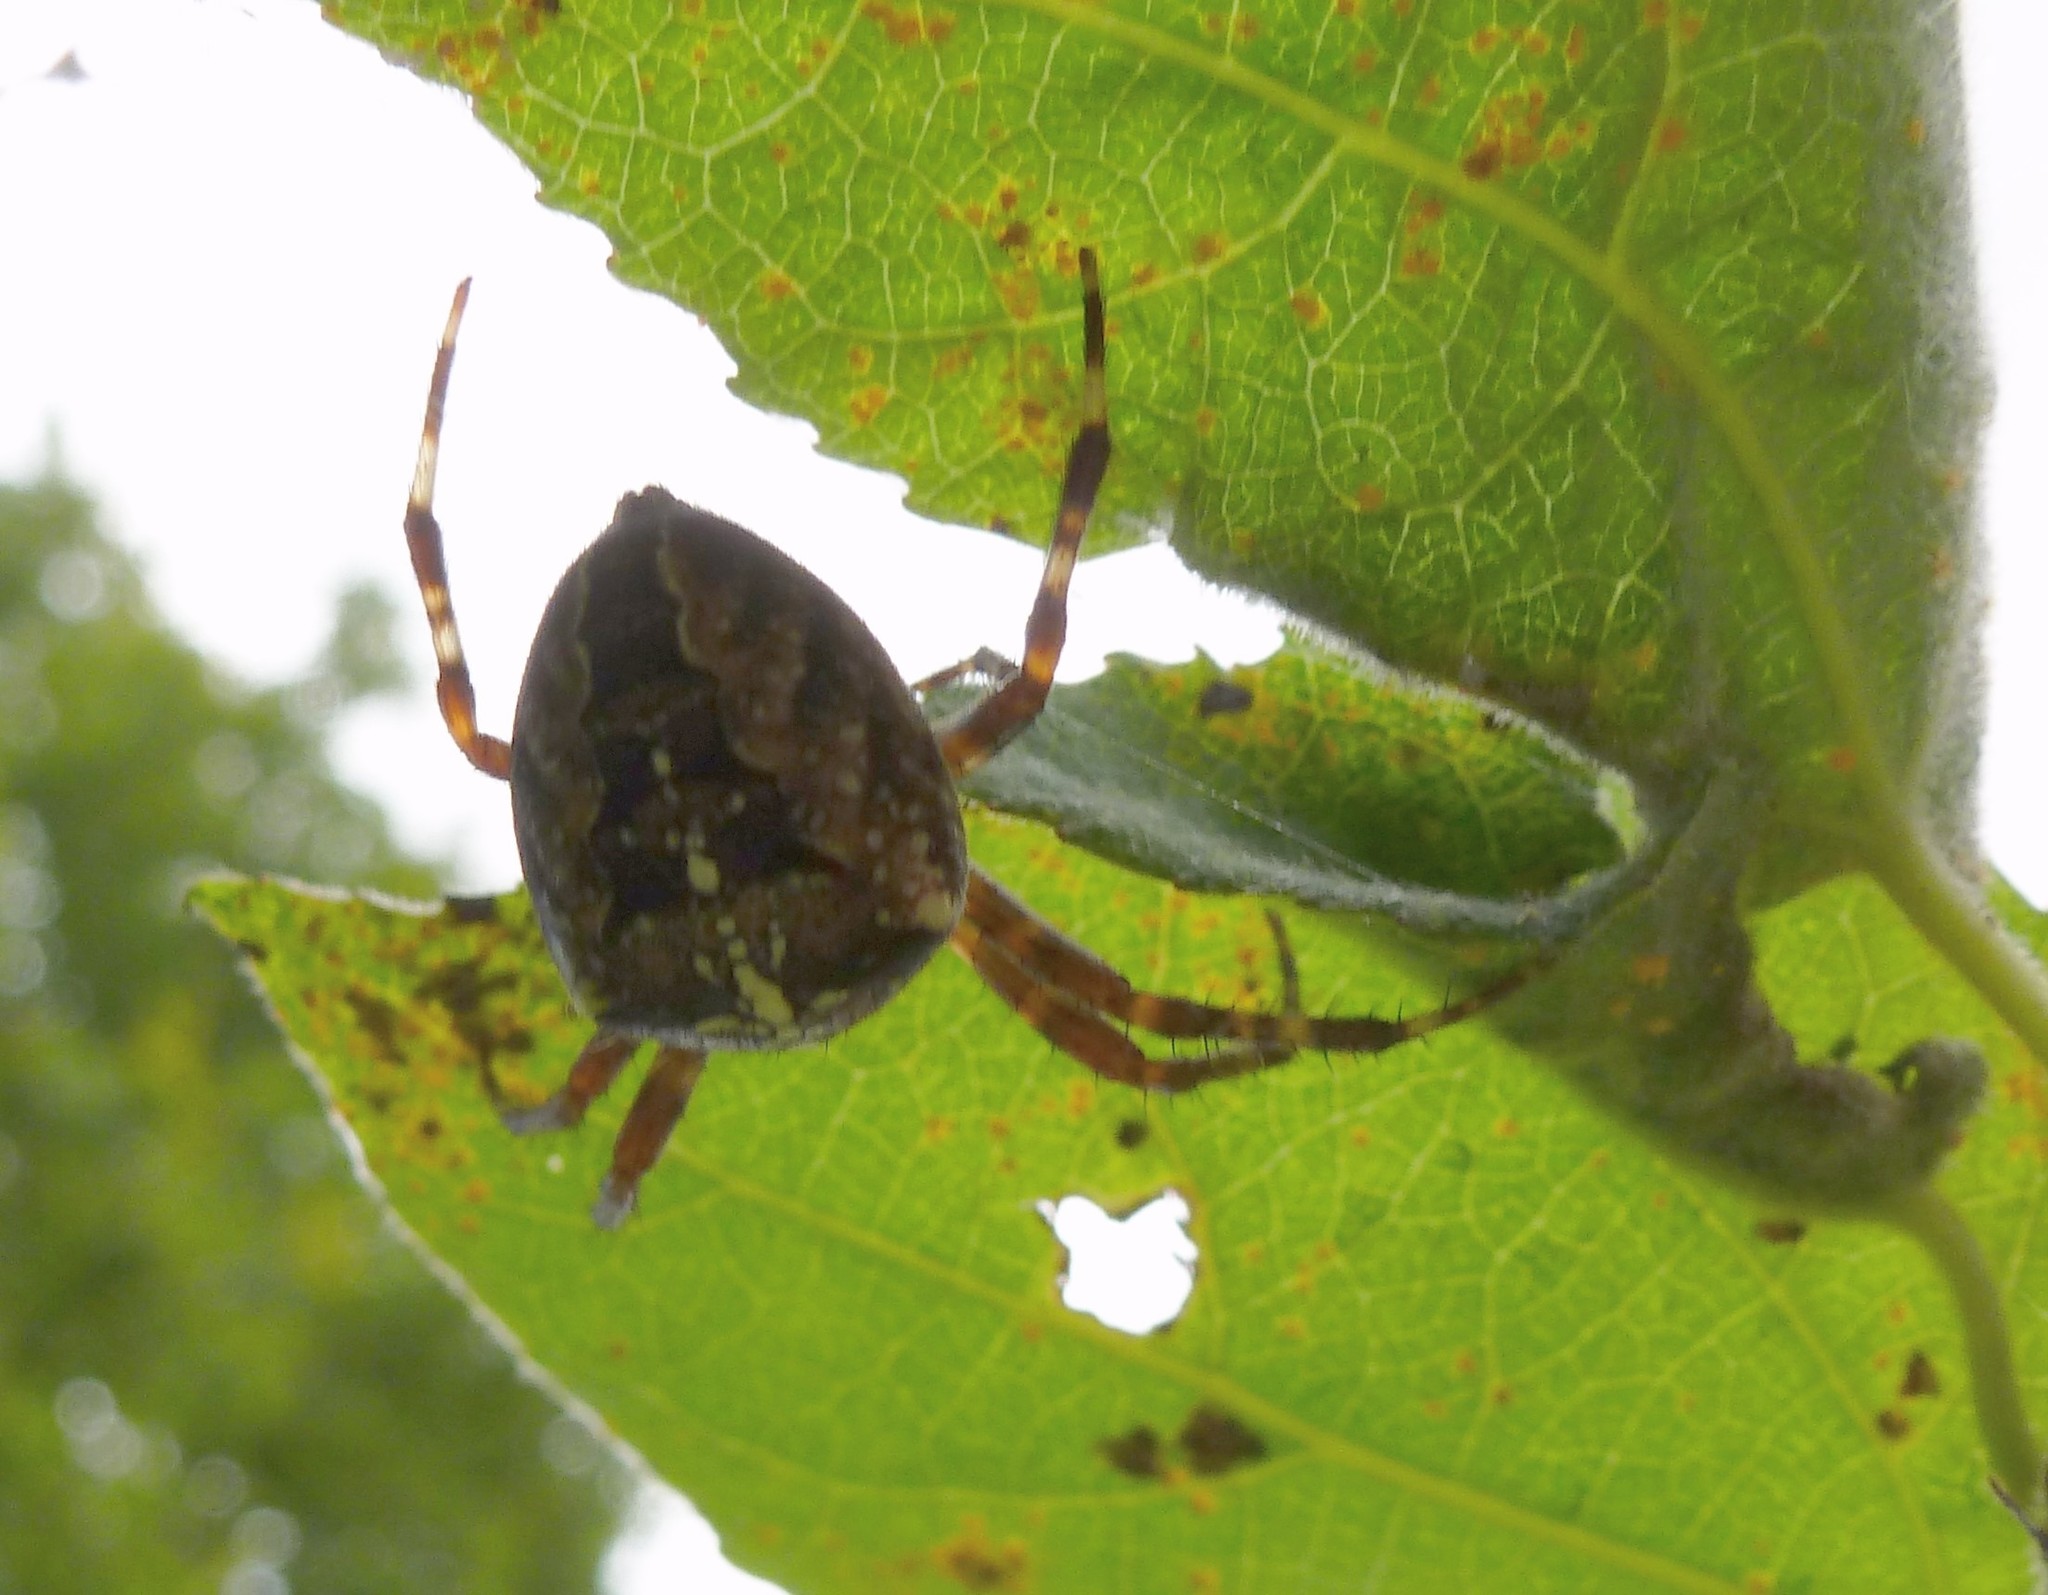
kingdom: Animalia
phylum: Arthropoda
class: Arachnida
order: Araneae
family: Araneidae
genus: Araneus
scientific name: Araneus diadematus
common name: Cross orbweaver
